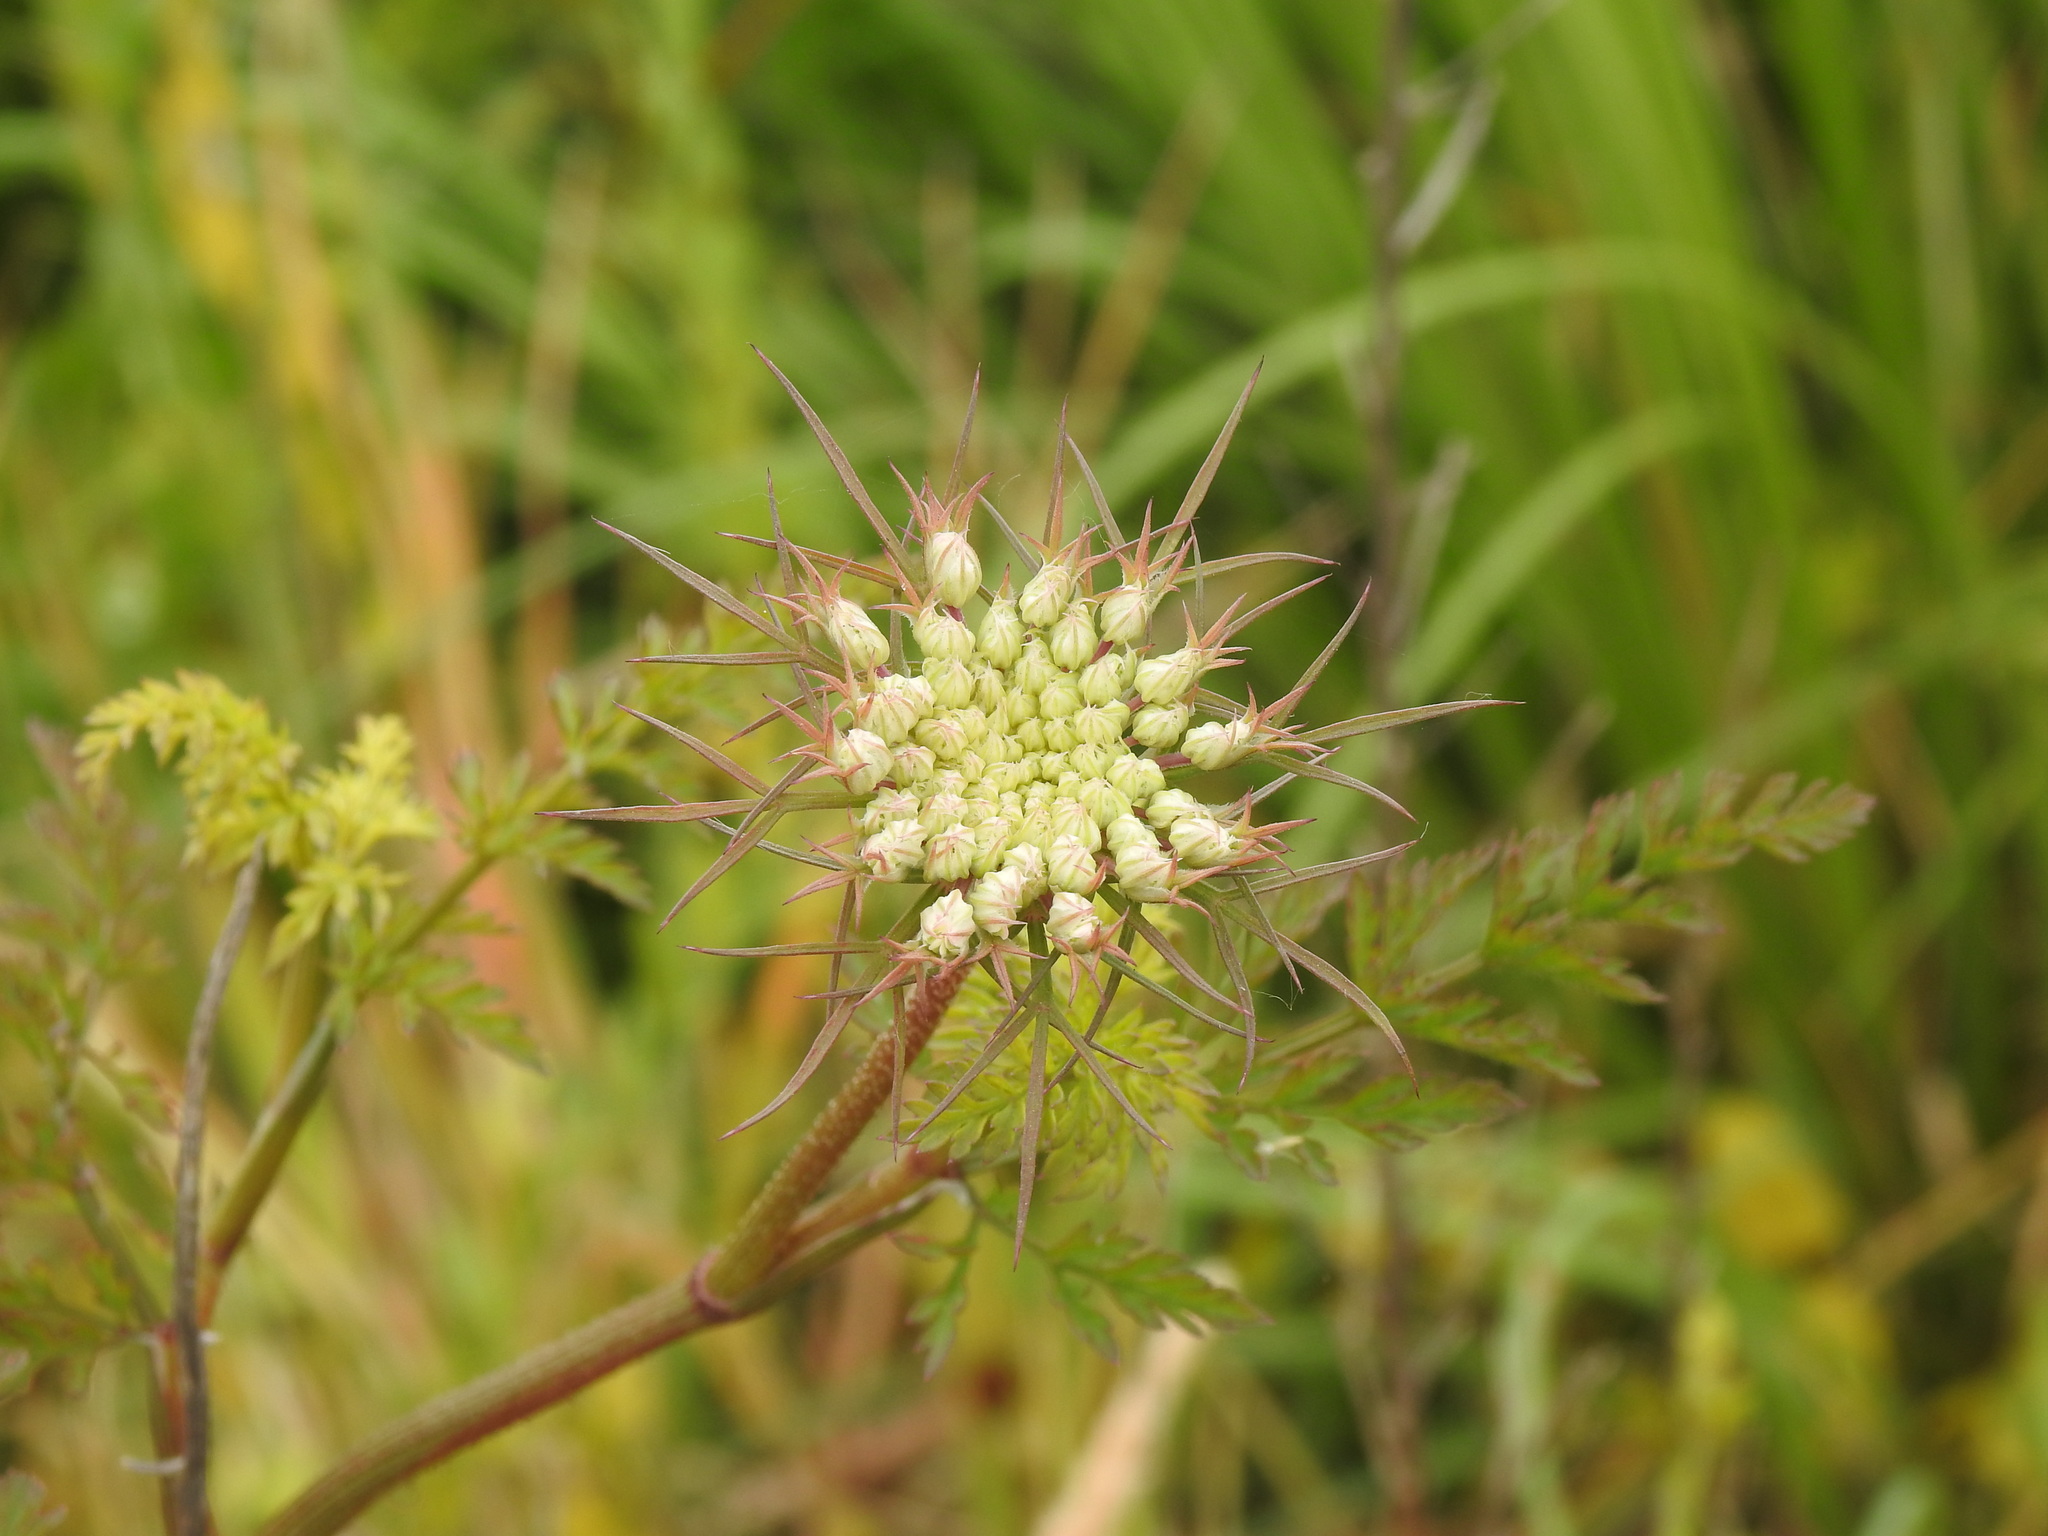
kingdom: Plantae
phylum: Tracheophyta
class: Magnoliopsida
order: Apiales
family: Apiaceae
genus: Daucus
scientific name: Daucus carota
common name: Wild carrot
